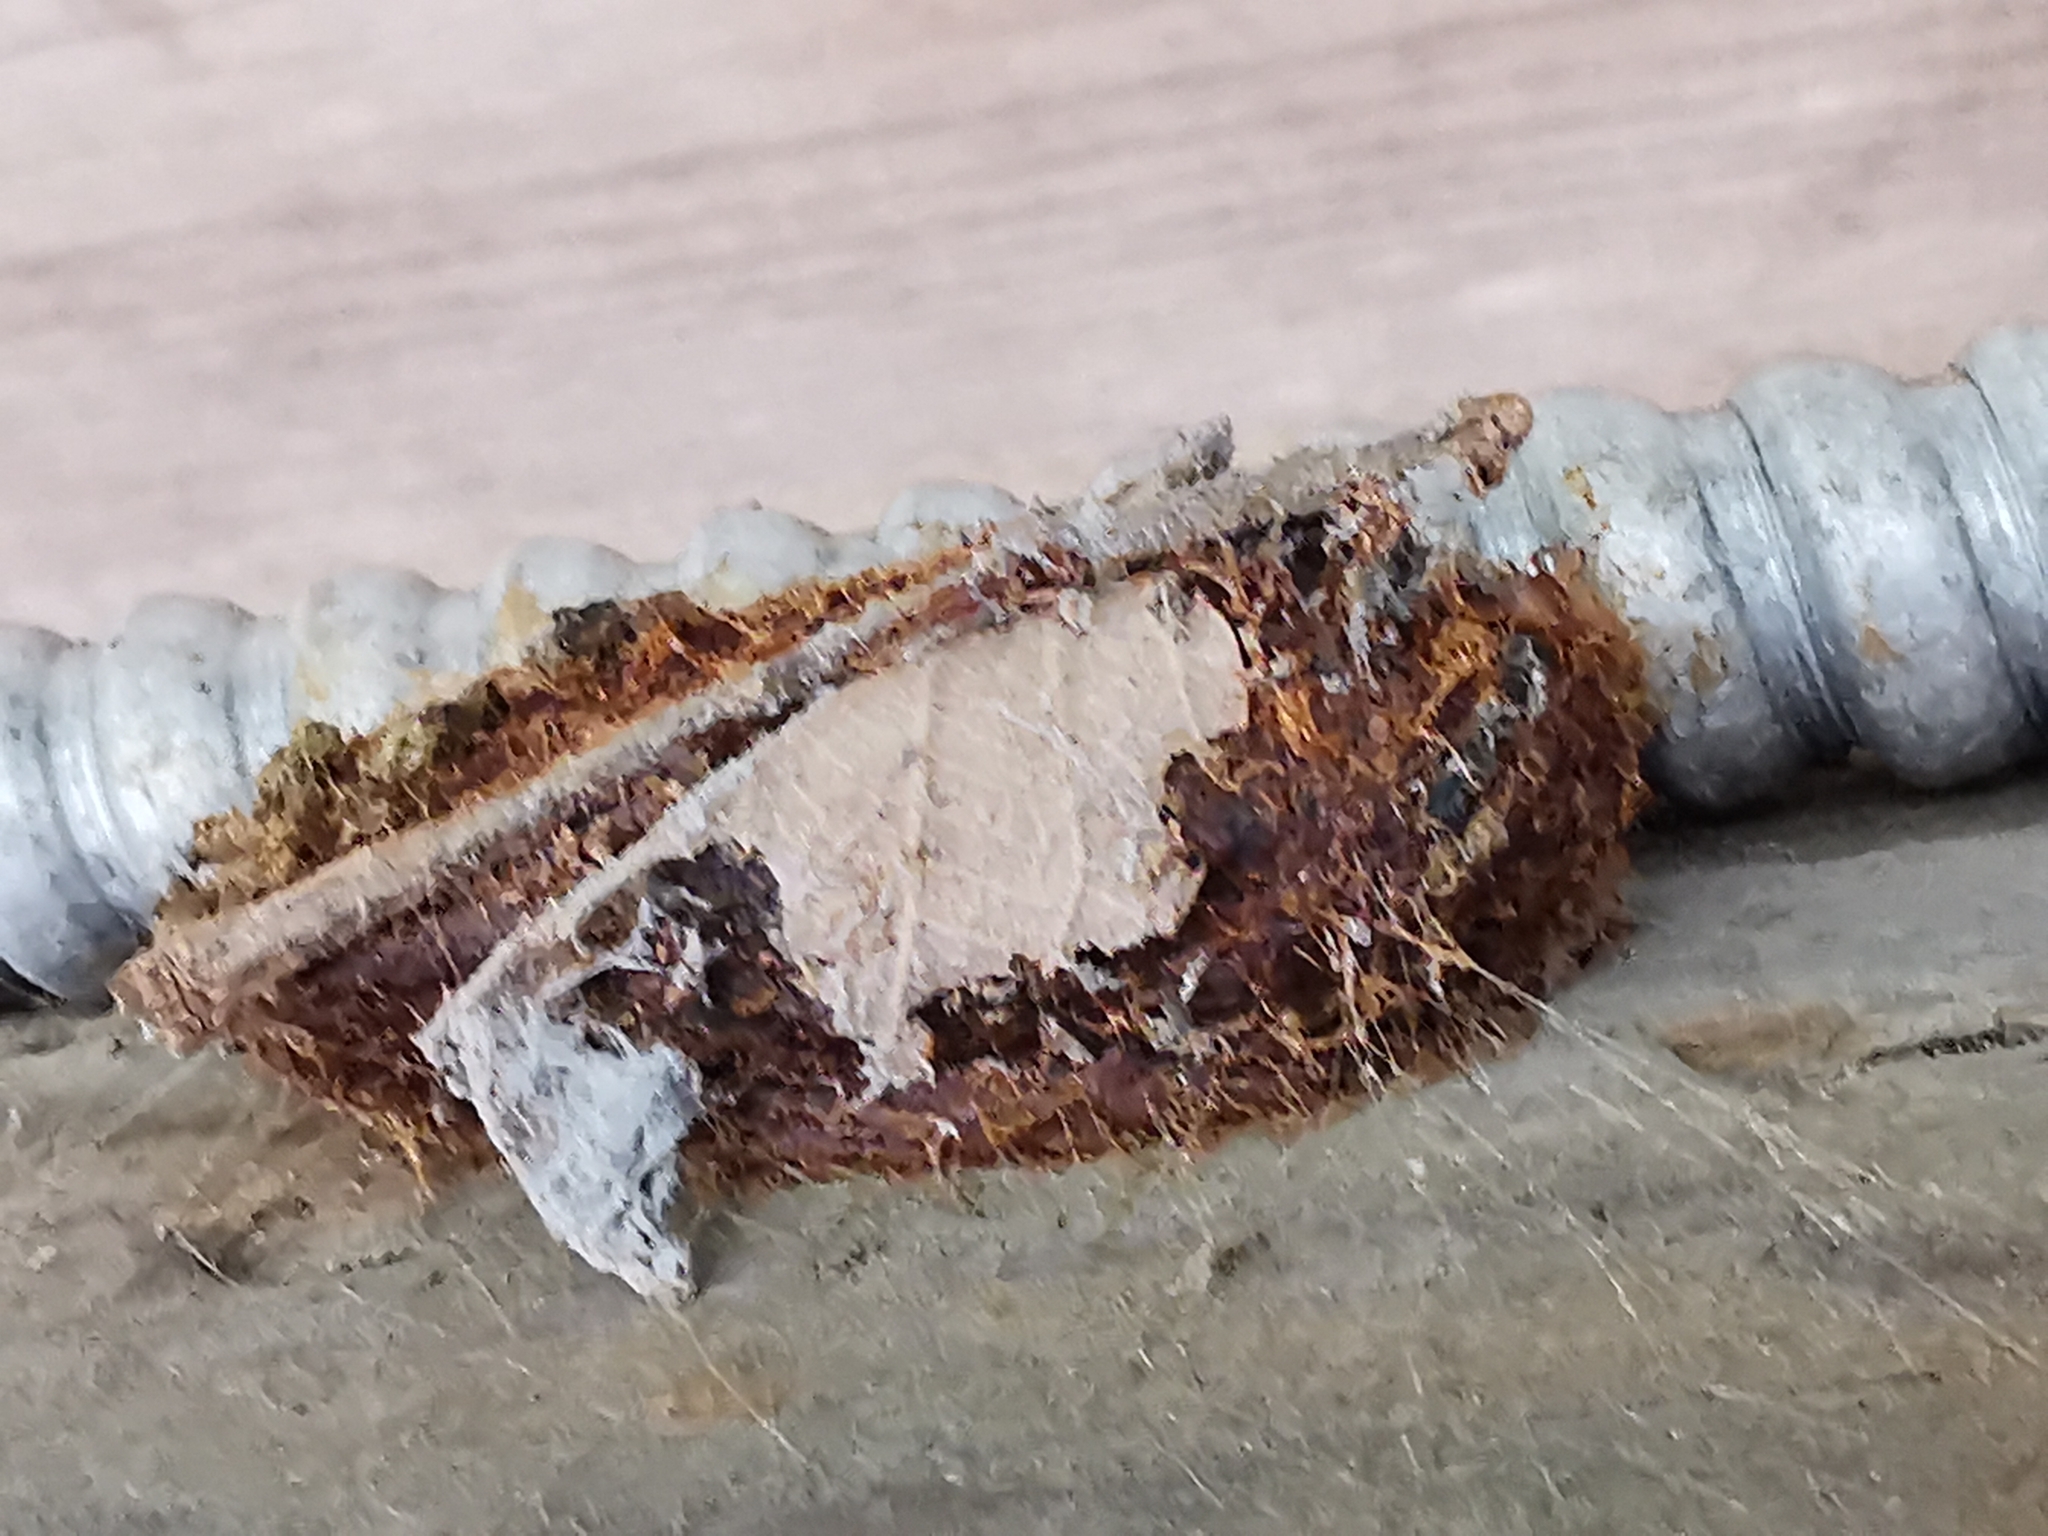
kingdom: Animalia
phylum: Arthropoda
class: Insecta
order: Lepidoptera
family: Saturniidae
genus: Leucanella
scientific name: Leucanella fusca
